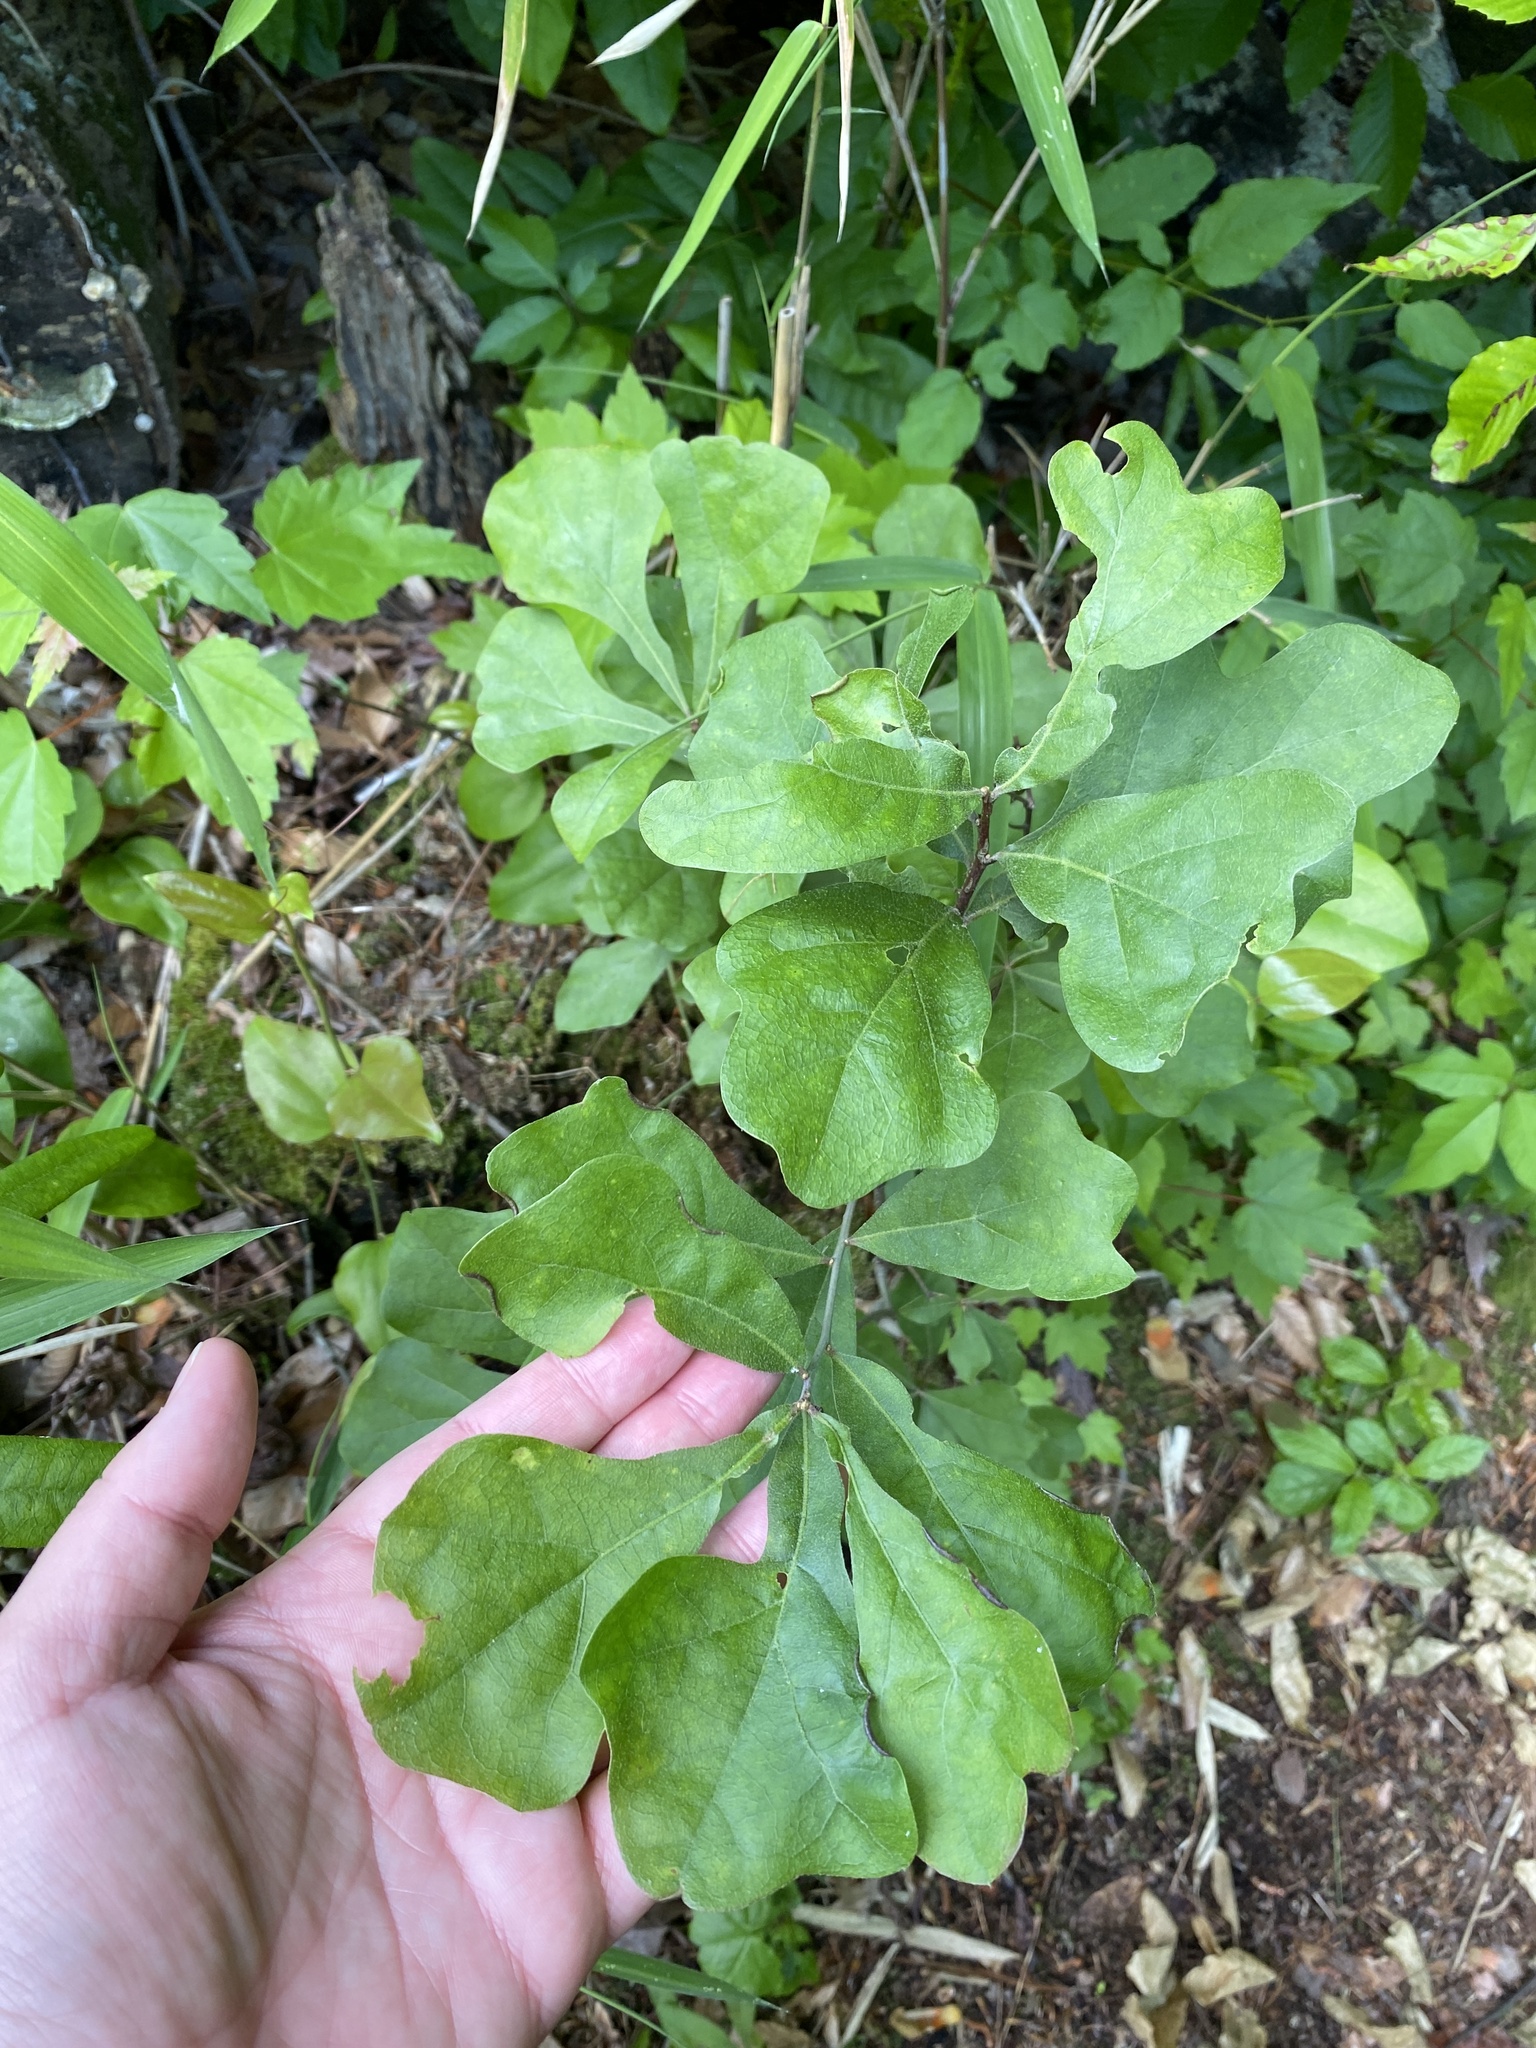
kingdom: Plantae
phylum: Tracheophyta
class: Magnoliopsida
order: Fagales
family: Fagaceae
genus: Quercus
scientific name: Quercus nigra
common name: Water oak
